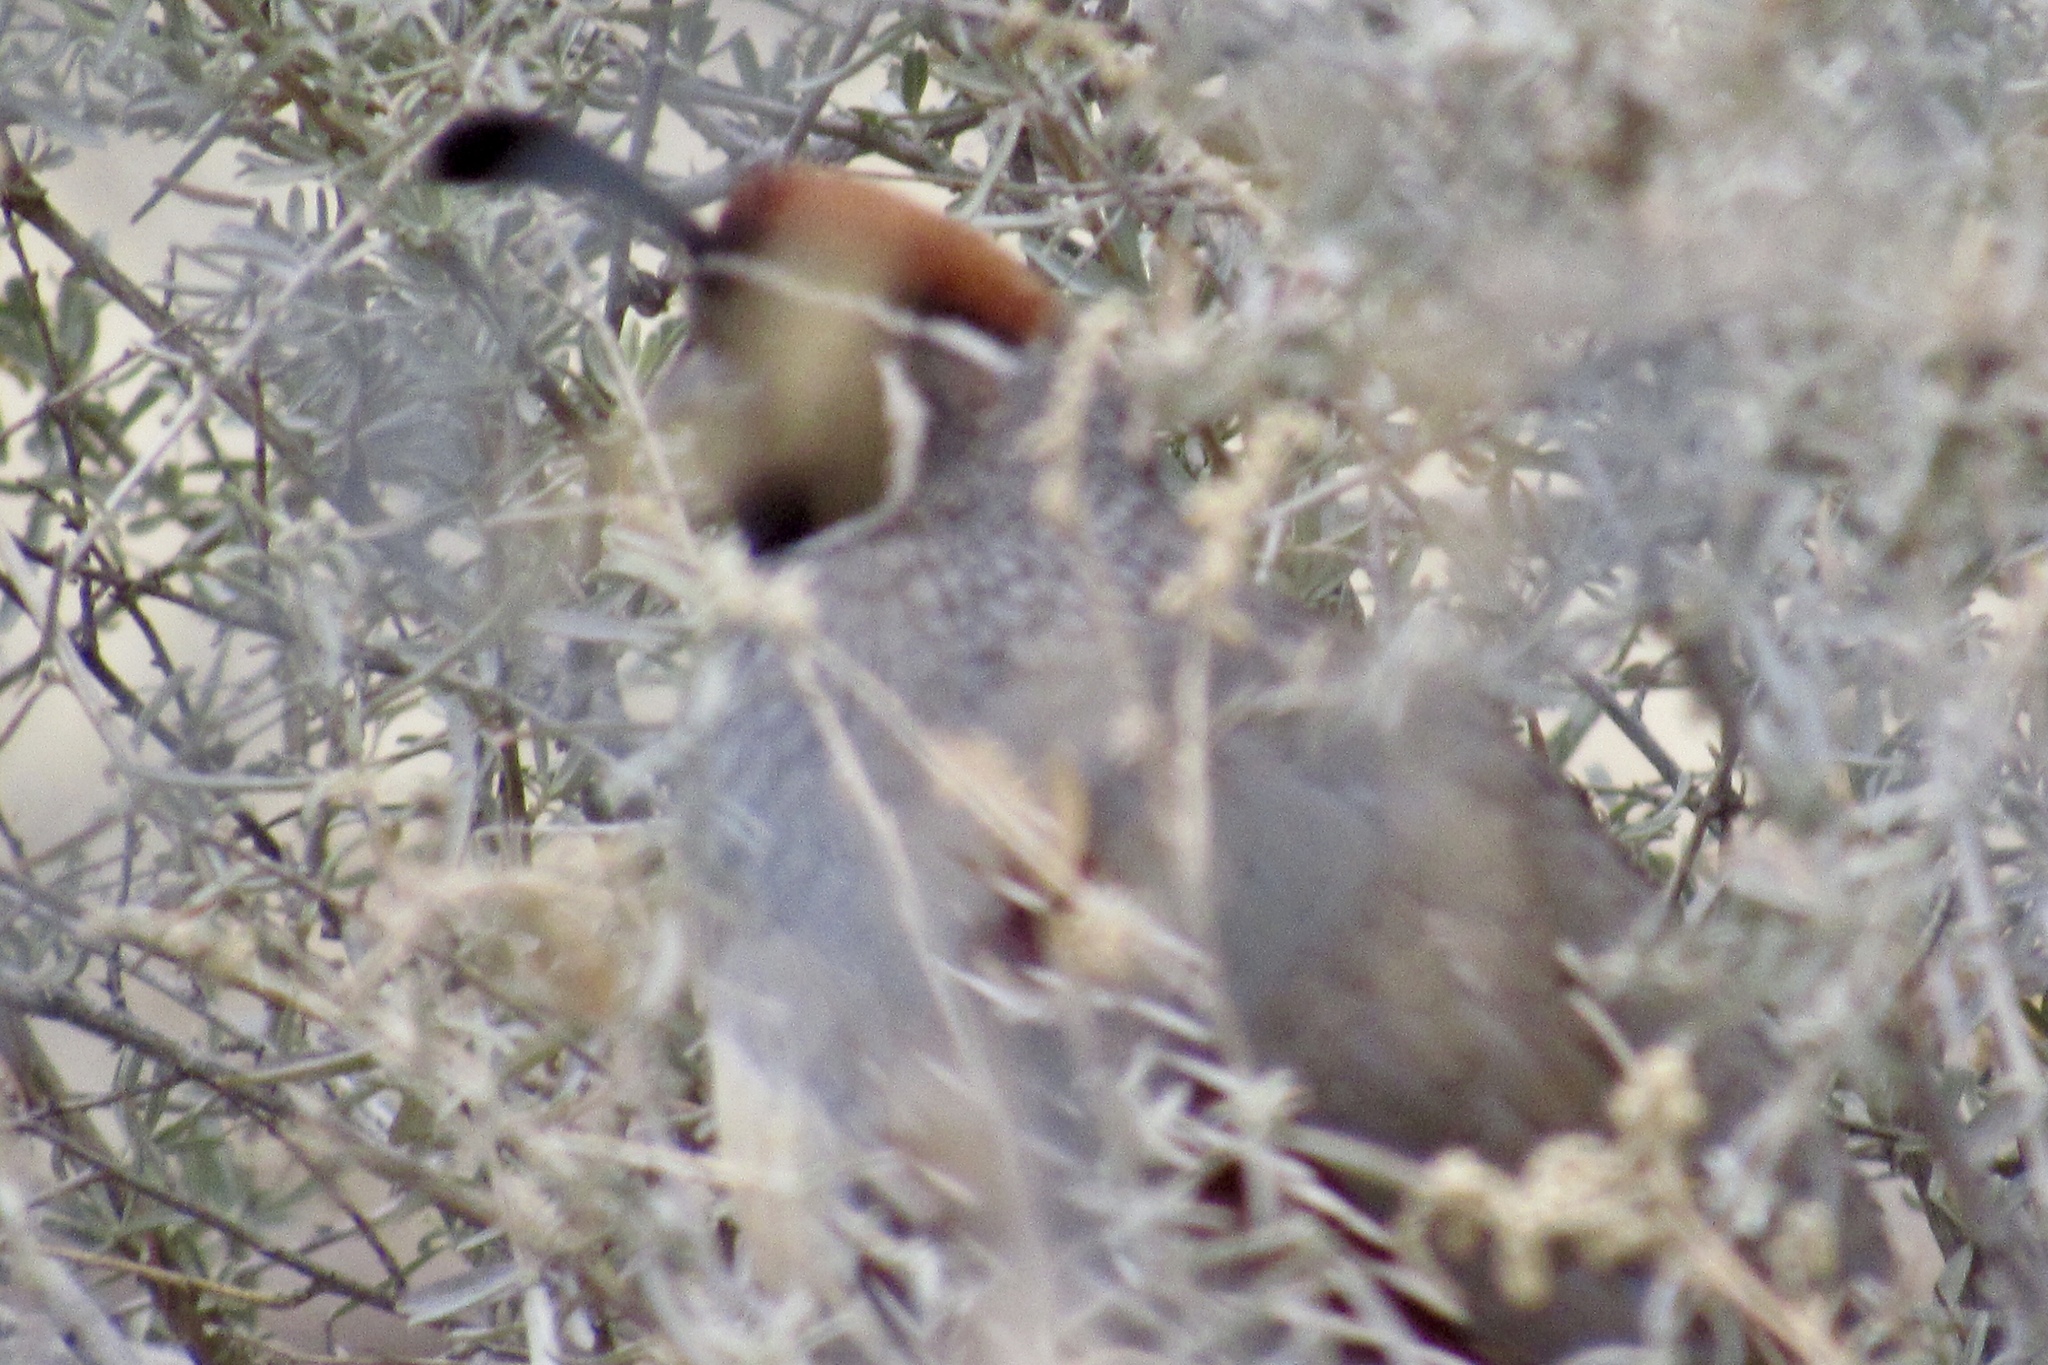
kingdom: Animalia
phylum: Chordata
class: Aves
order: Galliformes
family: Odontophoridae
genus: Callipepla
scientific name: Callipepla gambelii
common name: Gambel's quail
